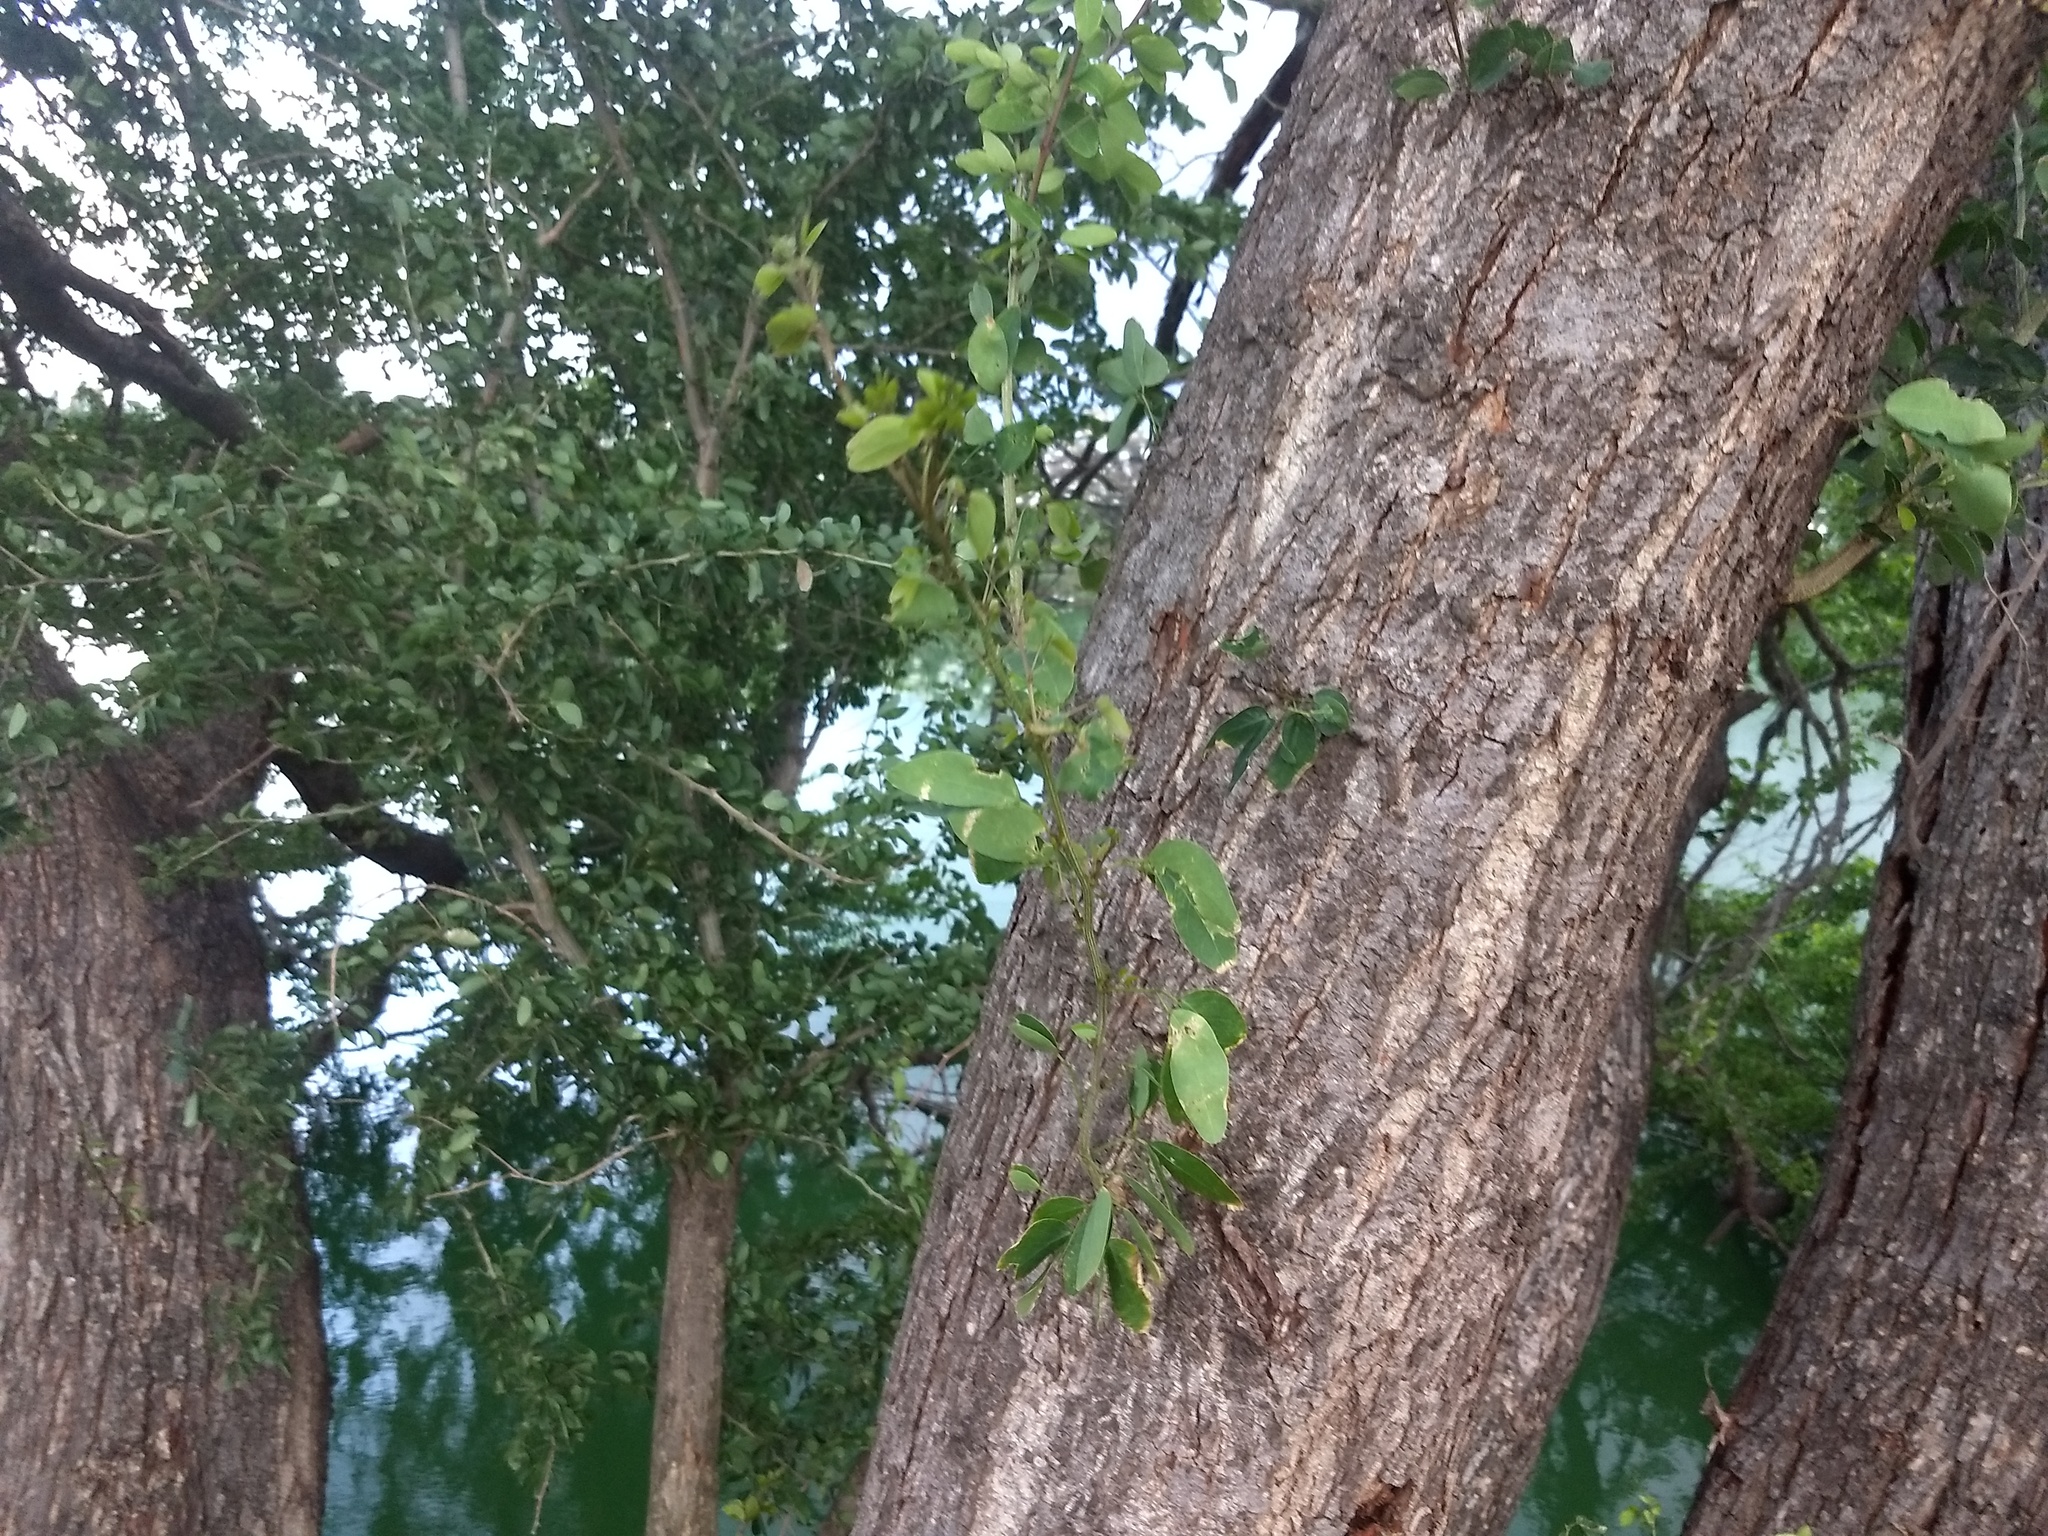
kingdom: Plantae
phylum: Tracheophyta
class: Magnoliopsida
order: Fabales
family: Fabaceae
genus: Pithecellobium
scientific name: Pithecellobium dulce
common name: Monkeypod
